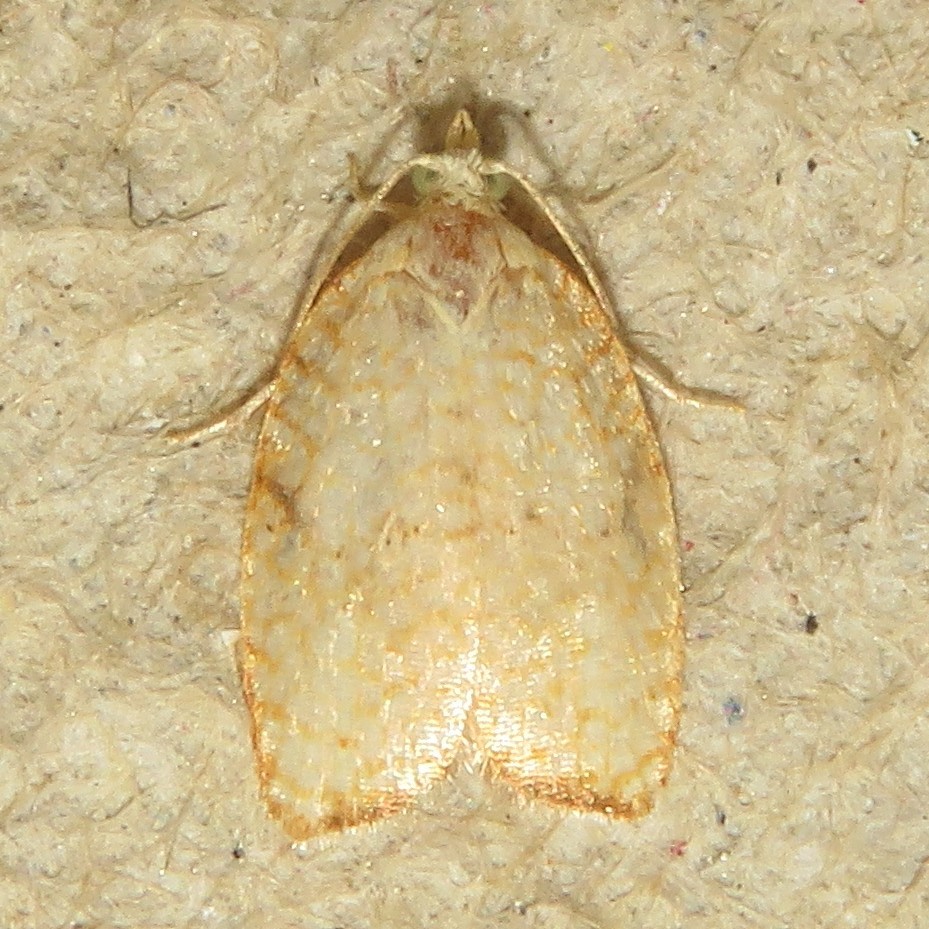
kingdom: Animalia
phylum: Arthropoda
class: Insecta
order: Lepidoptera
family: Tortricidae
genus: Acleris
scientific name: Acleris forsskaleana
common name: Maple button
